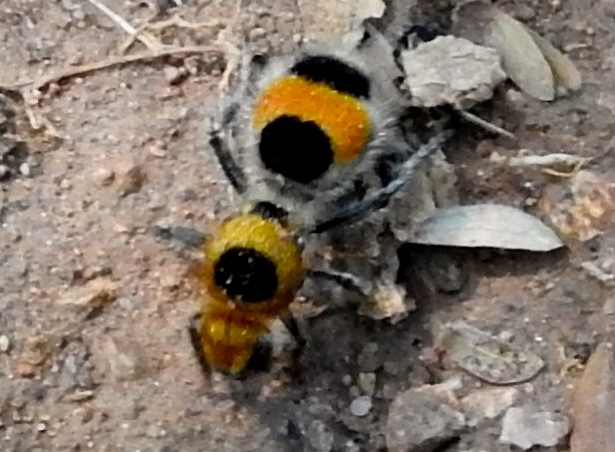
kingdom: Animalia
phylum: Arthropoda
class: Insecta
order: Hymenoptera
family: Mutillidae
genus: Dasymutilla
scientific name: Dasymutilla
